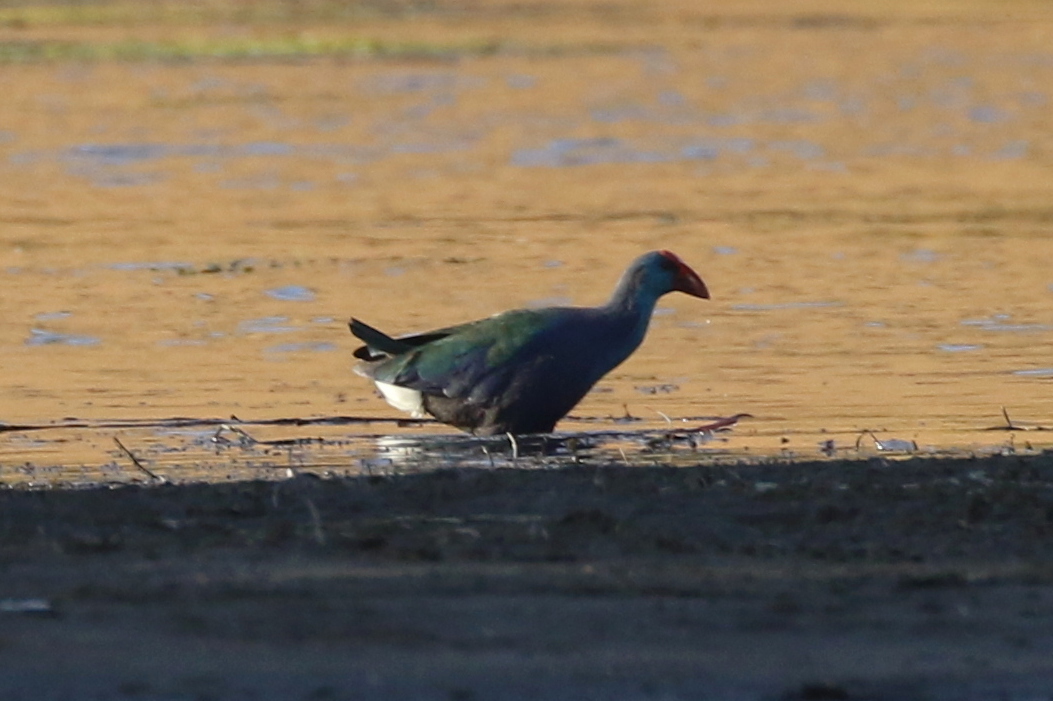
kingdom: Animalia
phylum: Chordata
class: Aves
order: Gruiformes
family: Rallidae
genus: Porphyrio
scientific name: Porphyrio porphyrio
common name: Purple swamphen
